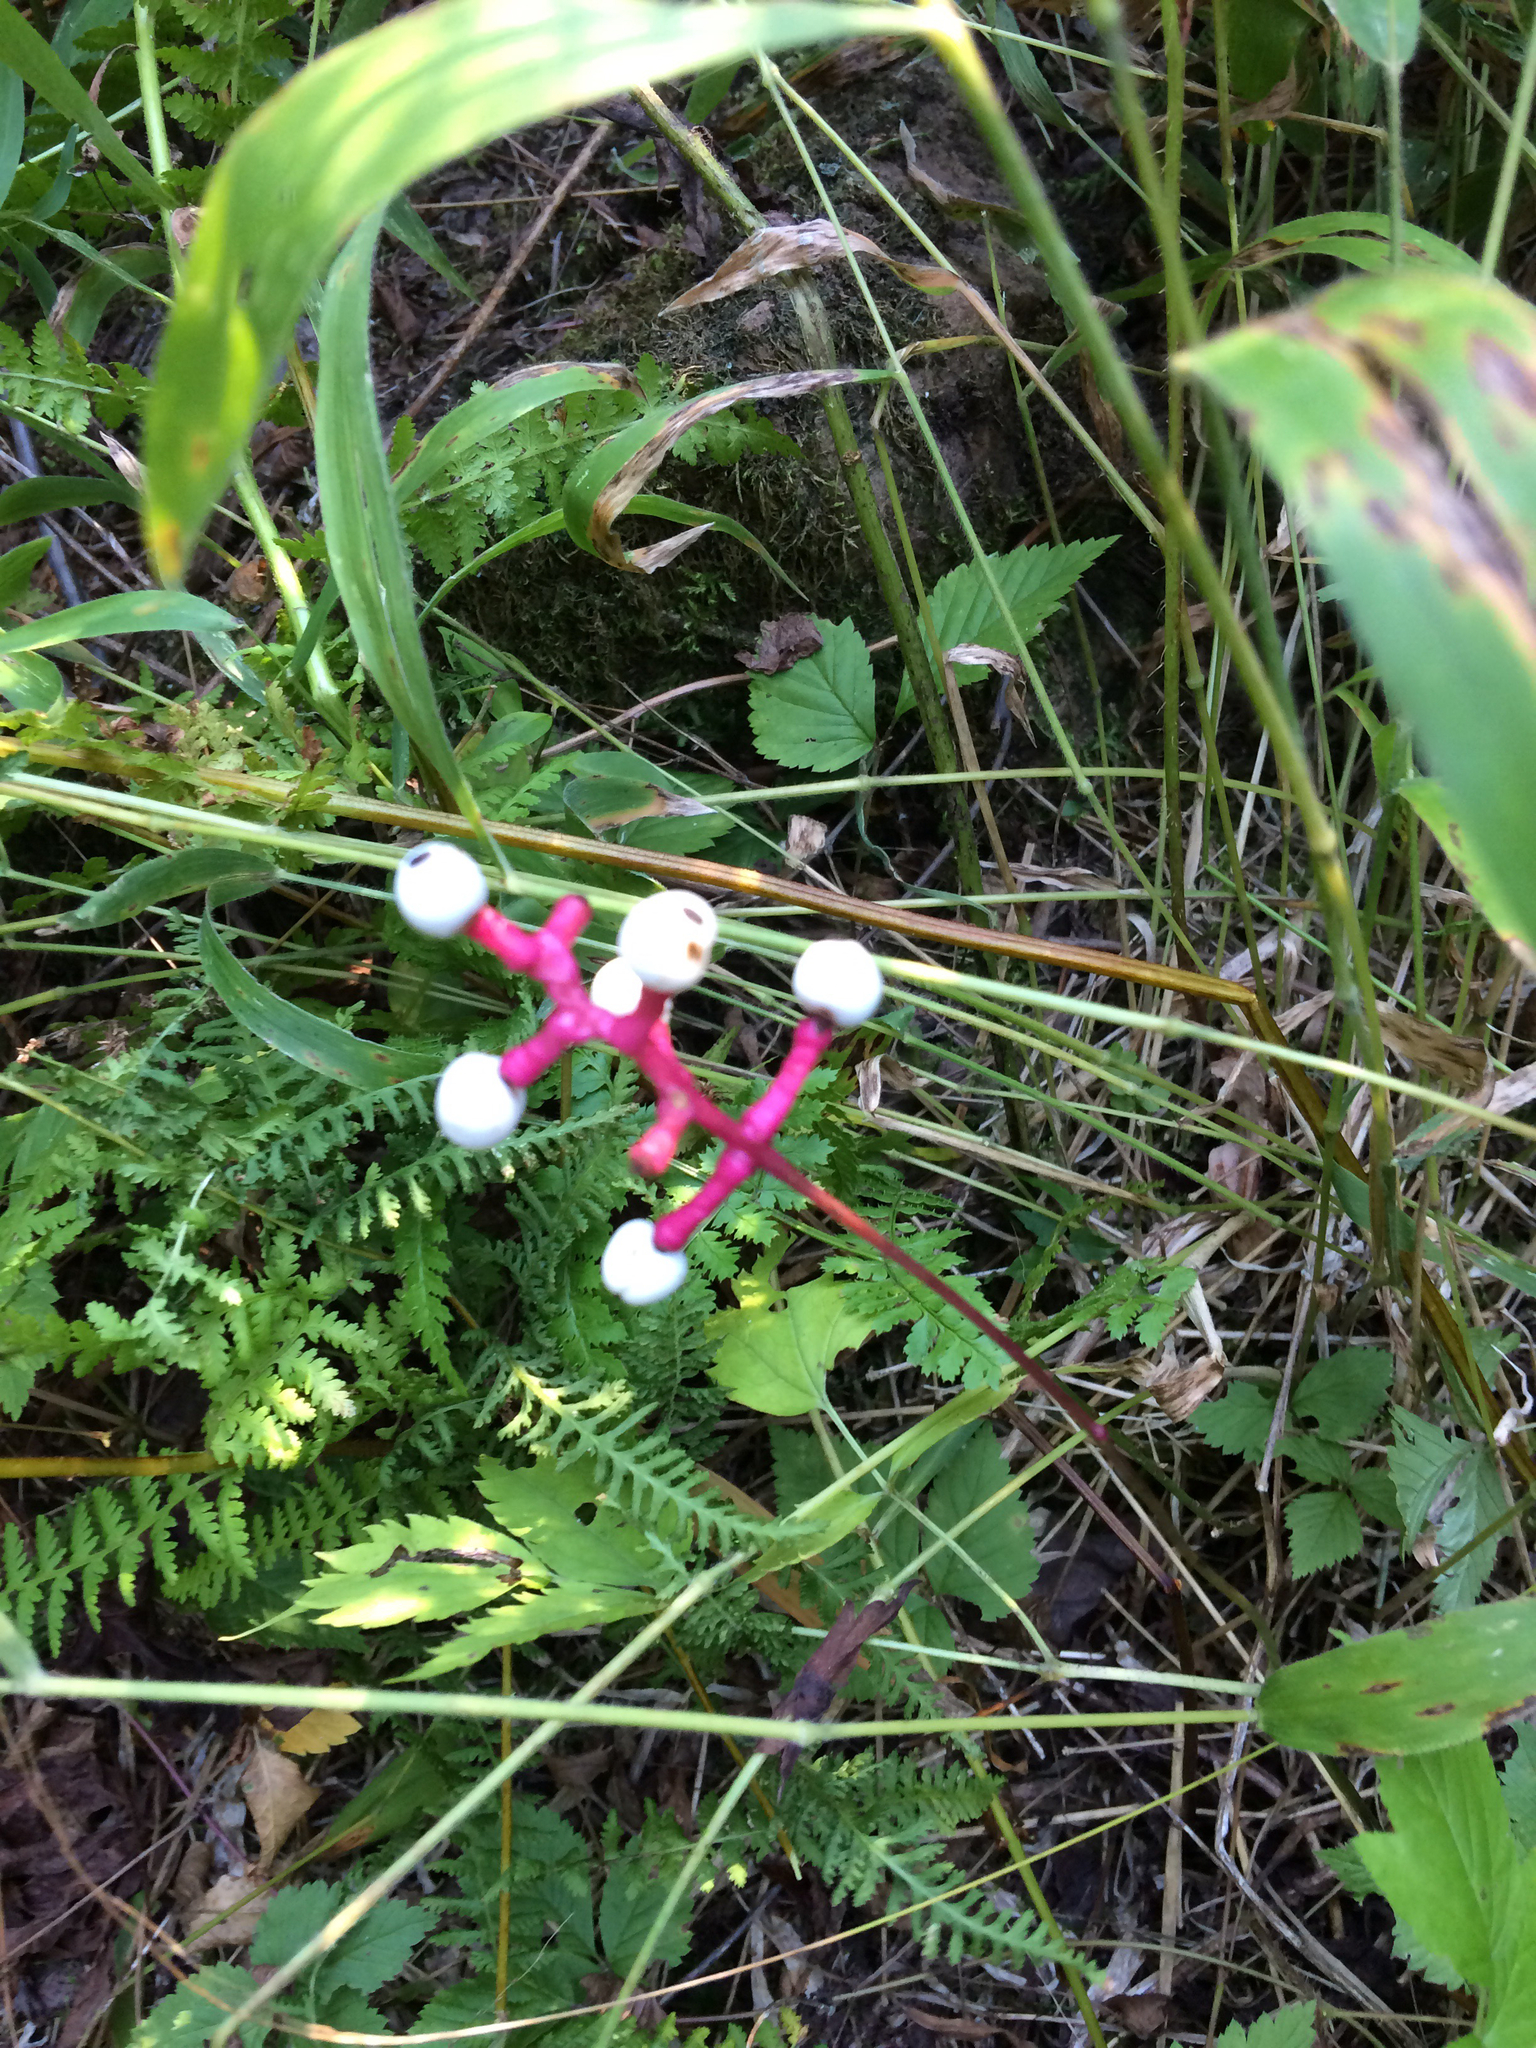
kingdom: Plantae
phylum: Tracheophyta
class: Magnoliopsida
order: Ranunculales
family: Ranunculaceae
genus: Actaea
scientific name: Actaea pachypoda
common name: Doll's-eyes
